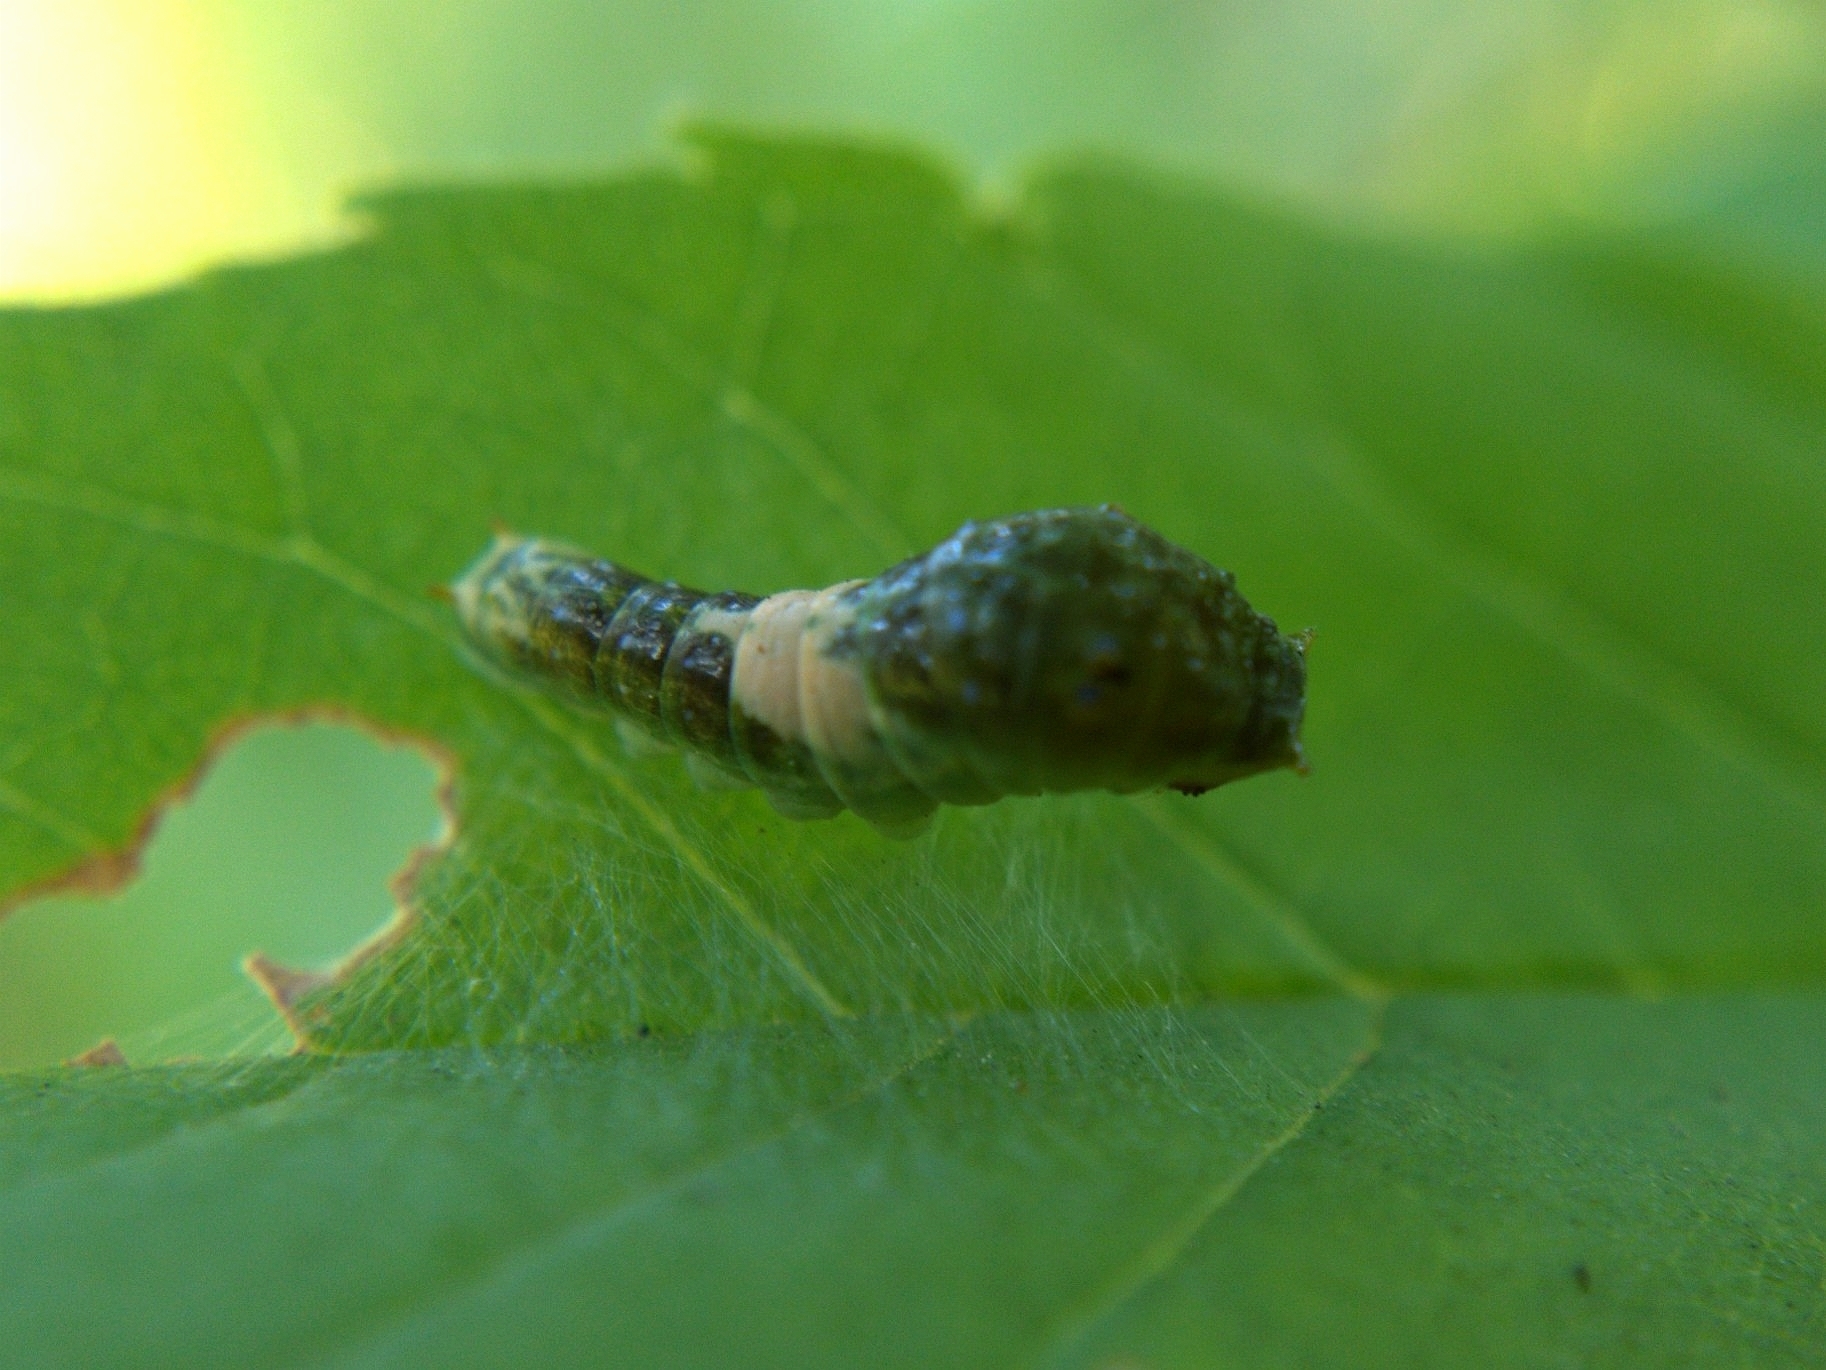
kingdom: Animalia
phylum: Arthropoda
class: Insecta
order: Lepidoptera
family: Papilionidae
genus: Pterourus
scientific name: Pterourus
